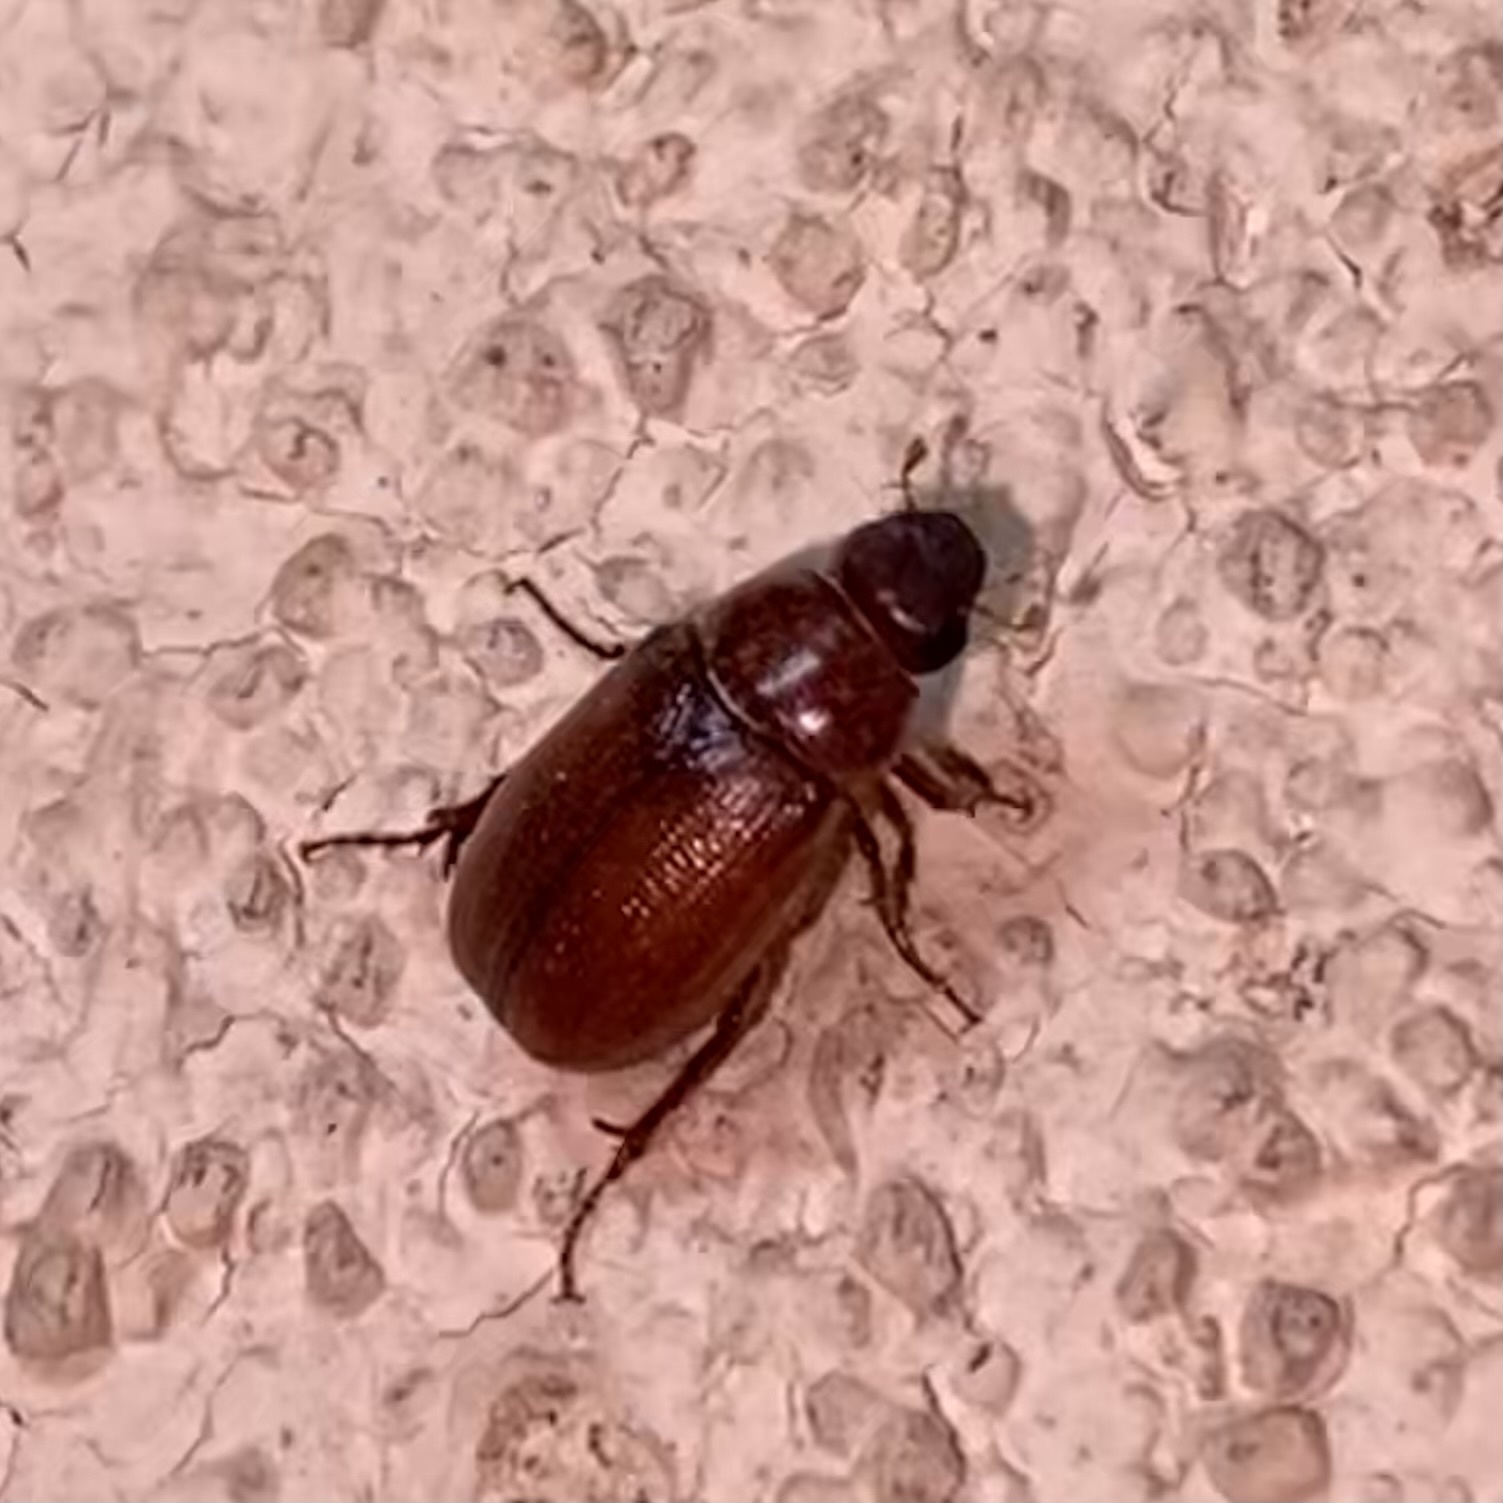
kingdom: Animalia
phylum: Arthropoda
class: Insecta
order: Coleoptera
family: Scarabaeidae
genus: Diplotaxis
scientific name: Diplotaxis
